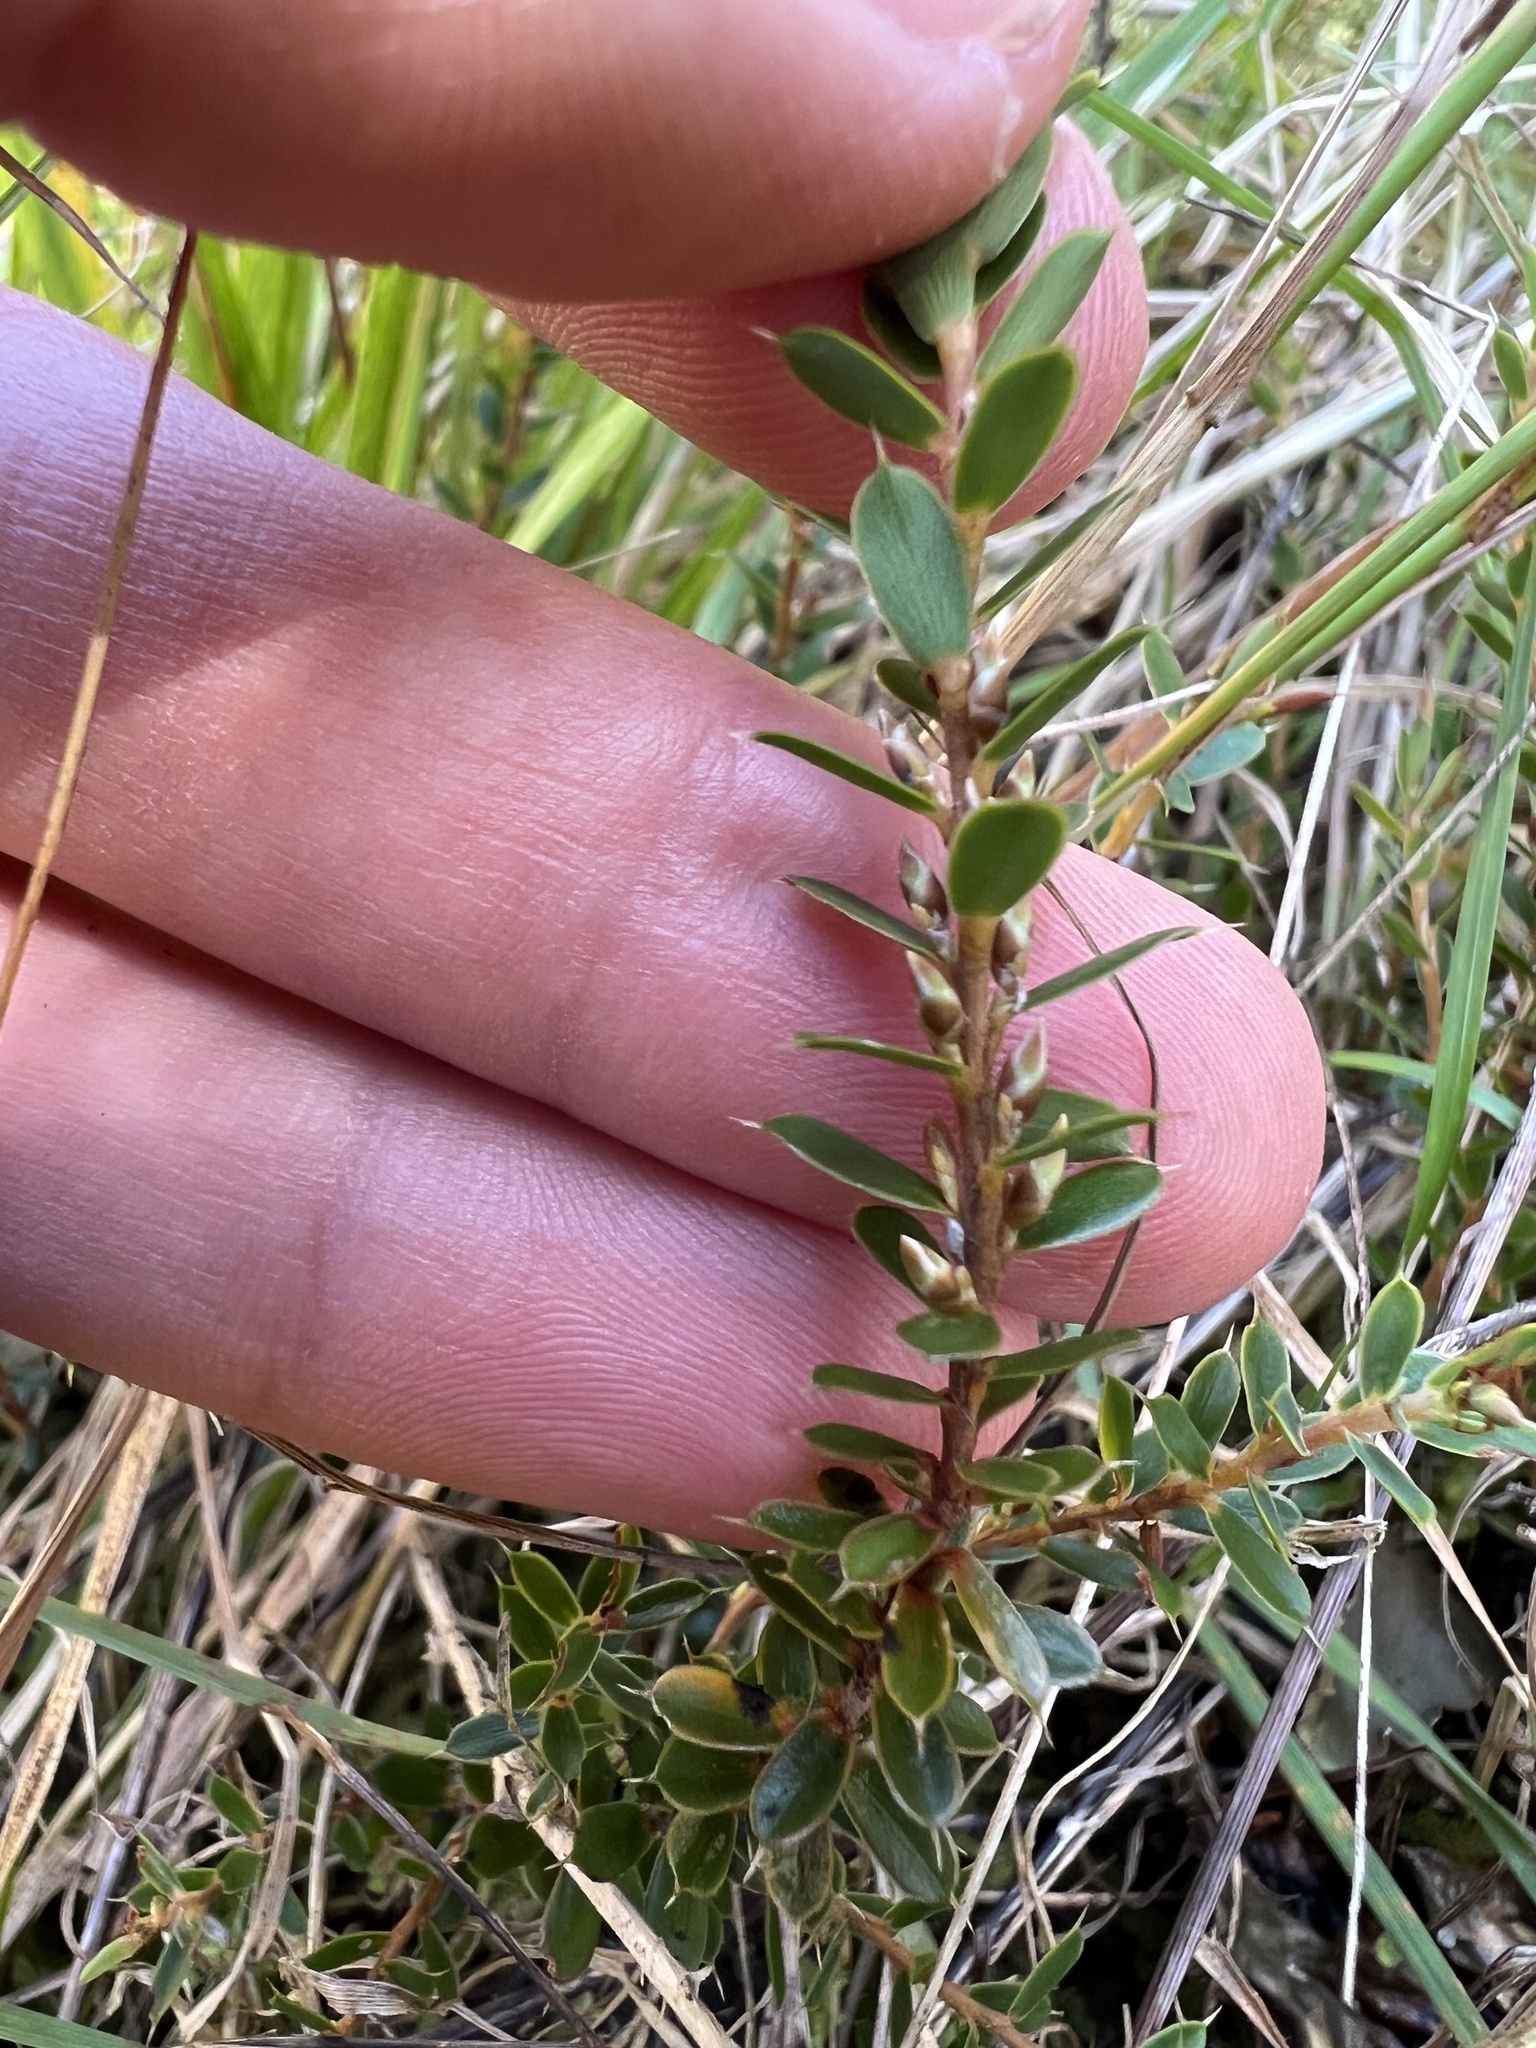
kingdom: Plantae
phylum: Tracheophyta
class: Magnoliopsida
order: Ericales
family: Ericaceae
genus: Styphelia
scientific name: Styphelia nesophila
